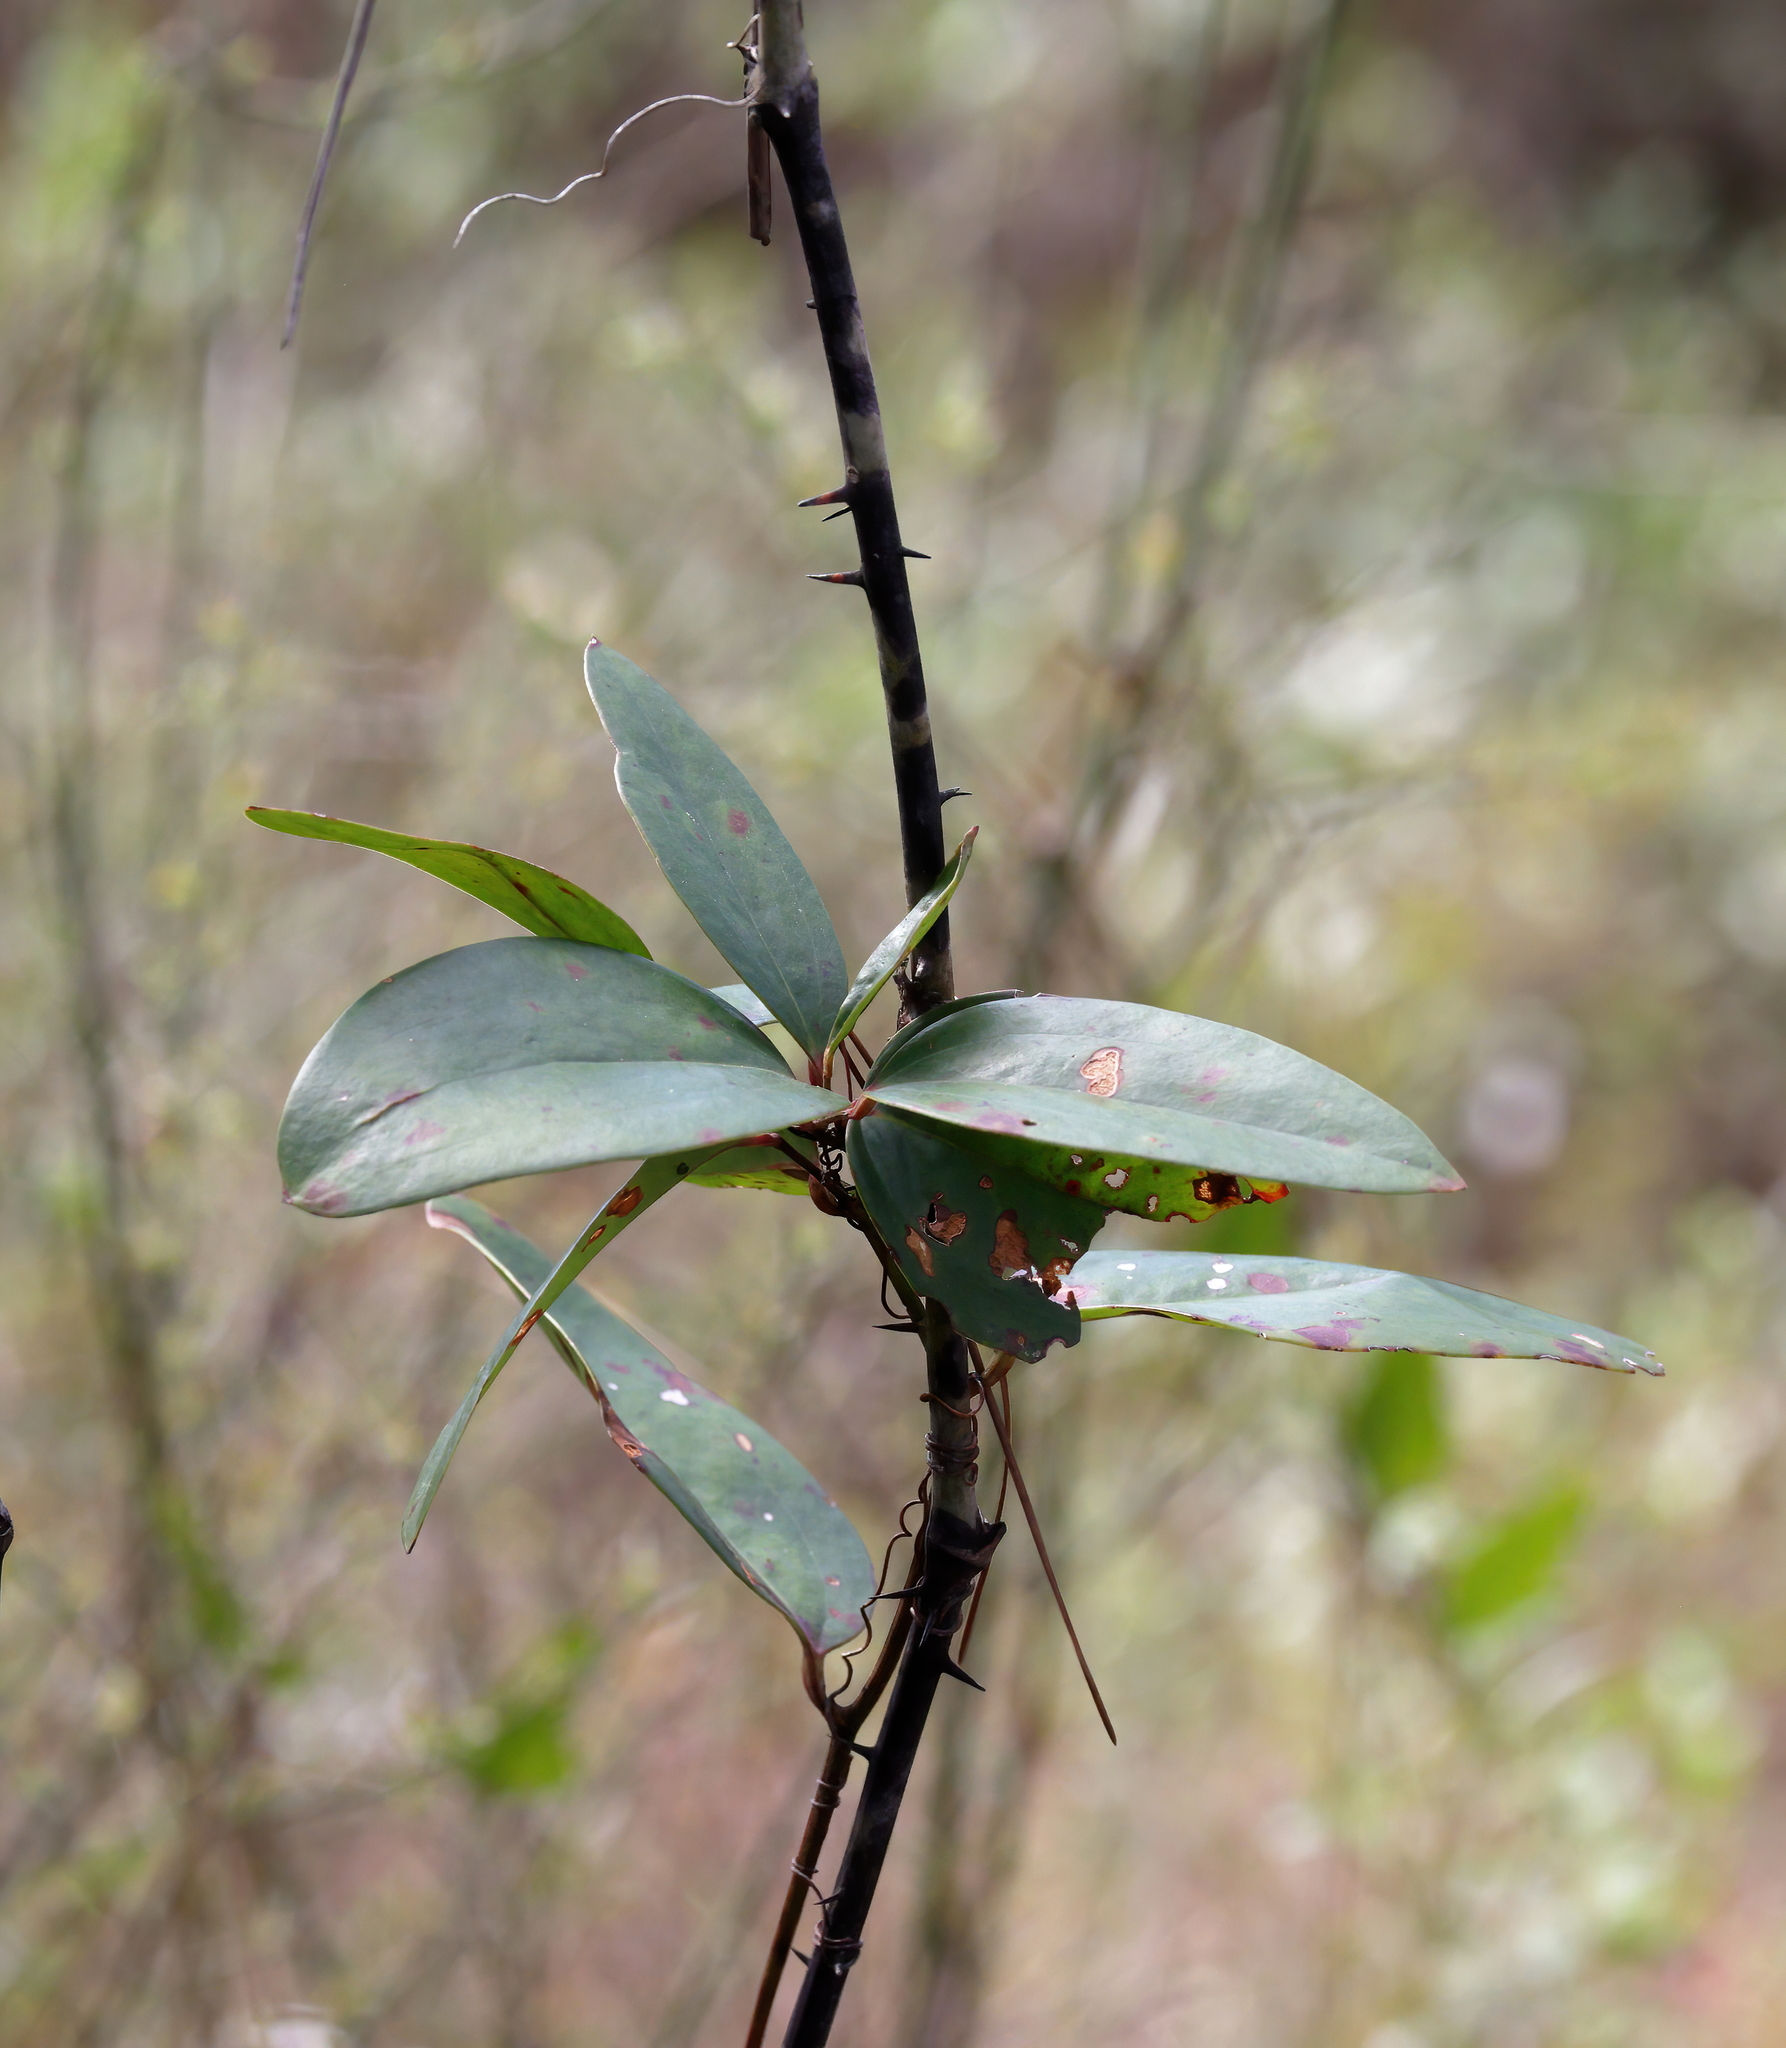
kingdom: Plantae
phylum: Tracheophyta
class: Liliopsida
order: Liliales
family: Smilacaceae
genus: Smilax
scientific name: Smilax laurifolia
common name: Bamboovine
